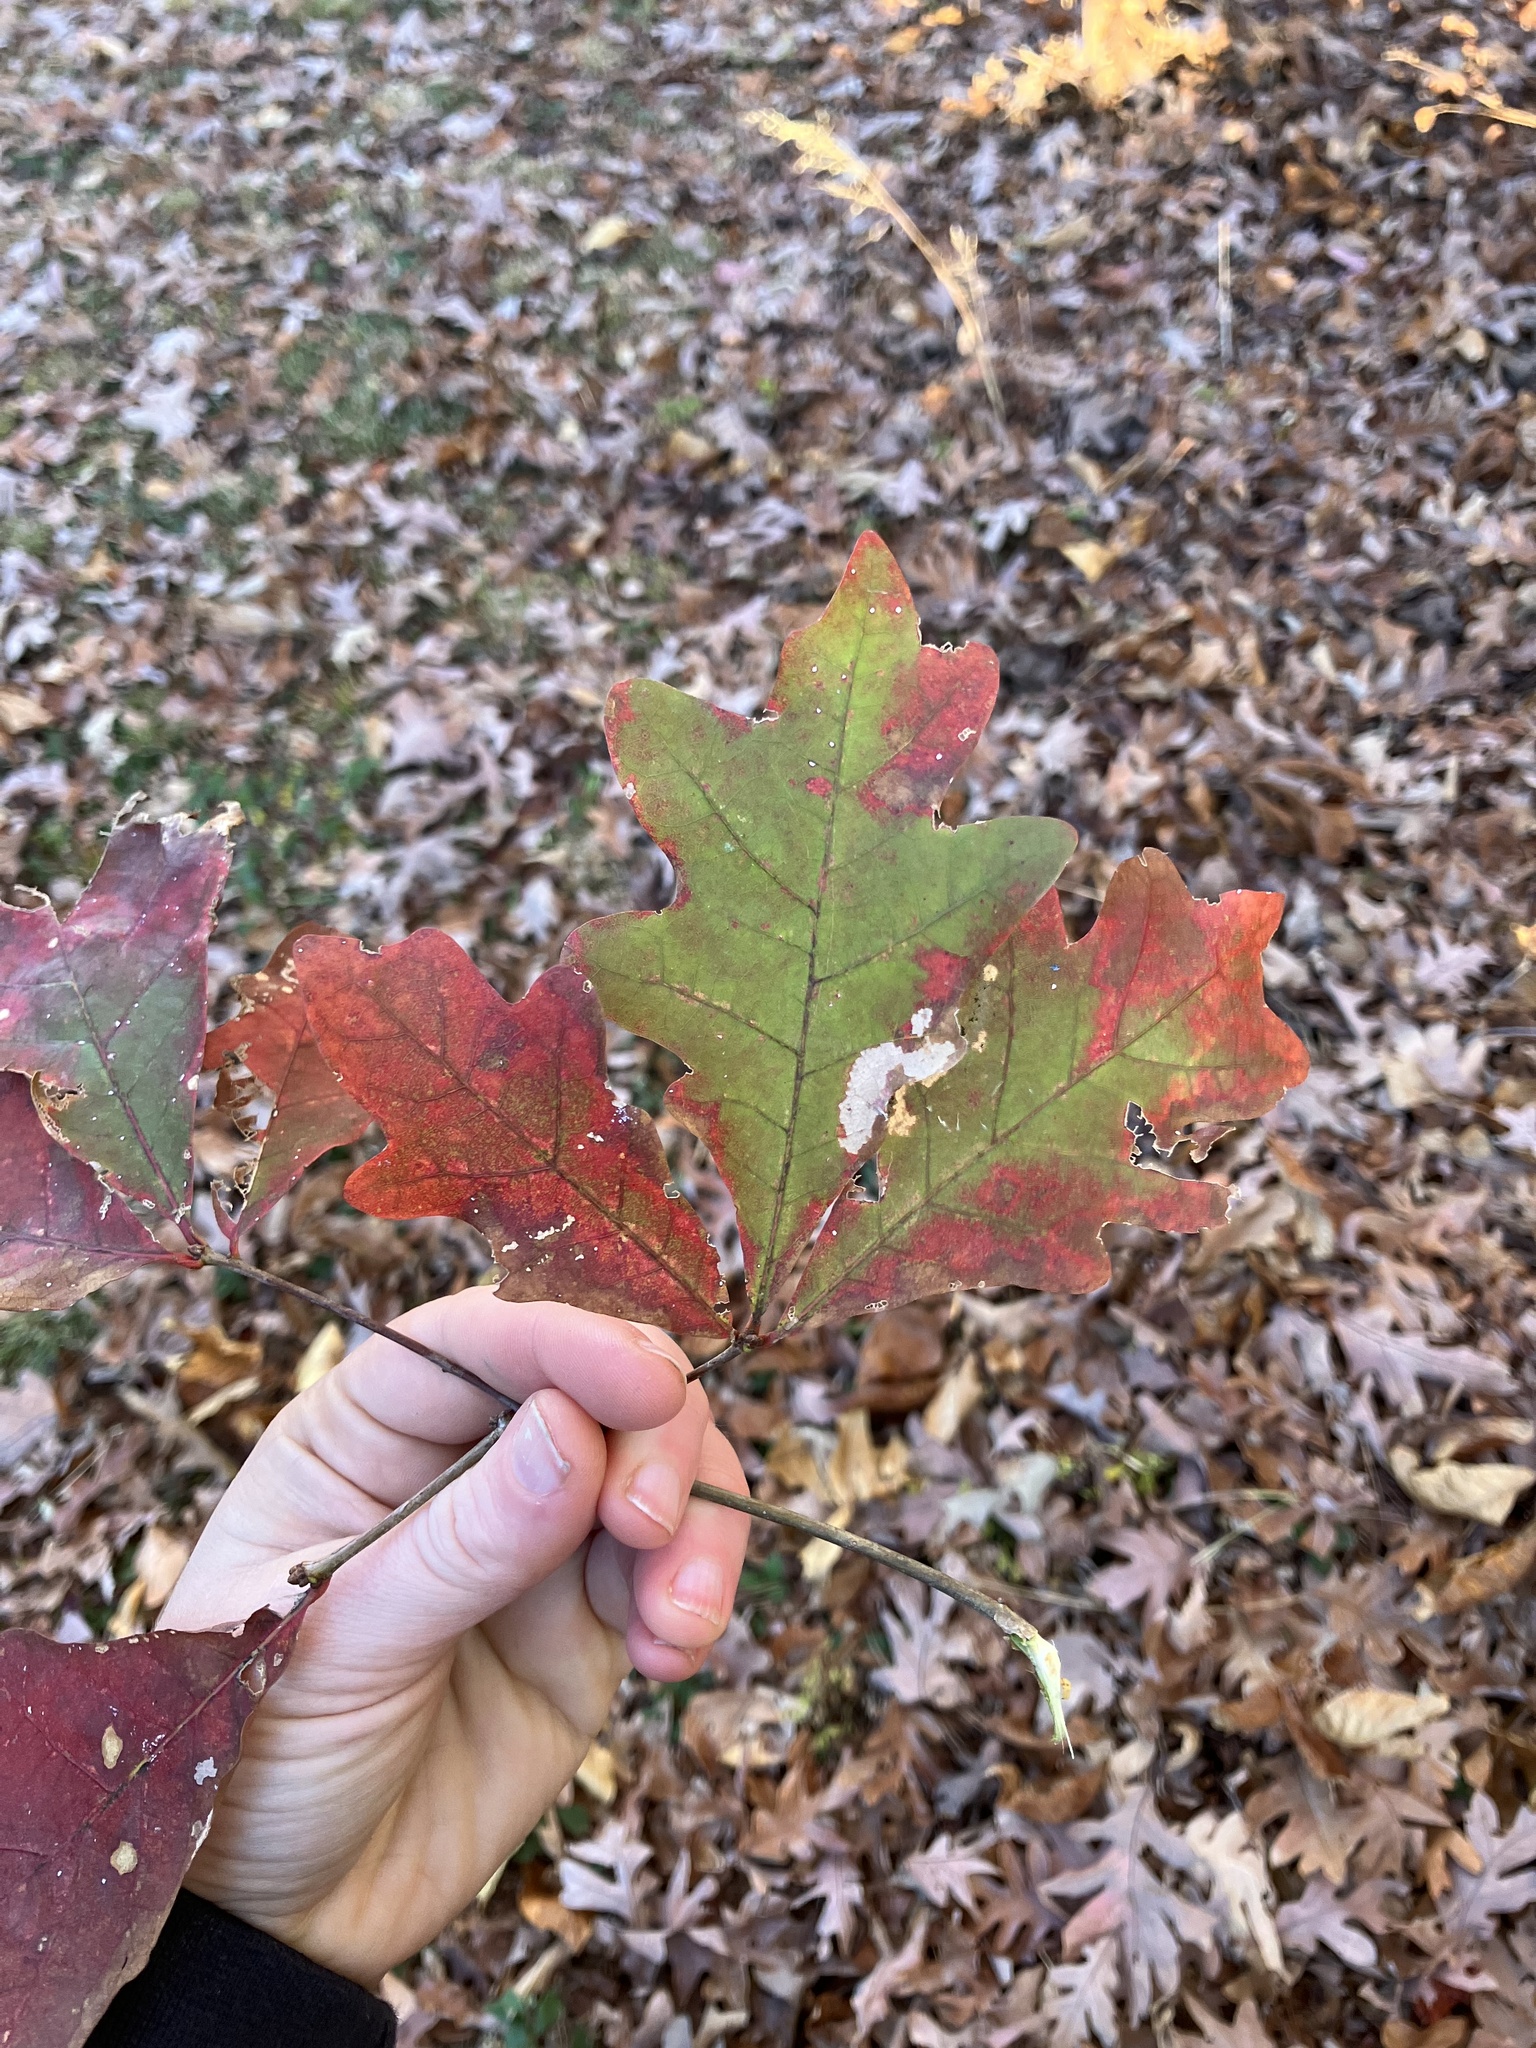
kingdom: Plantae
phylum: Tracheophyta
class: Magnoliopsida
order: Fagales
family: Fagaceae
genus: Quercus
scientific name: Quercus alba
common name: White oak
